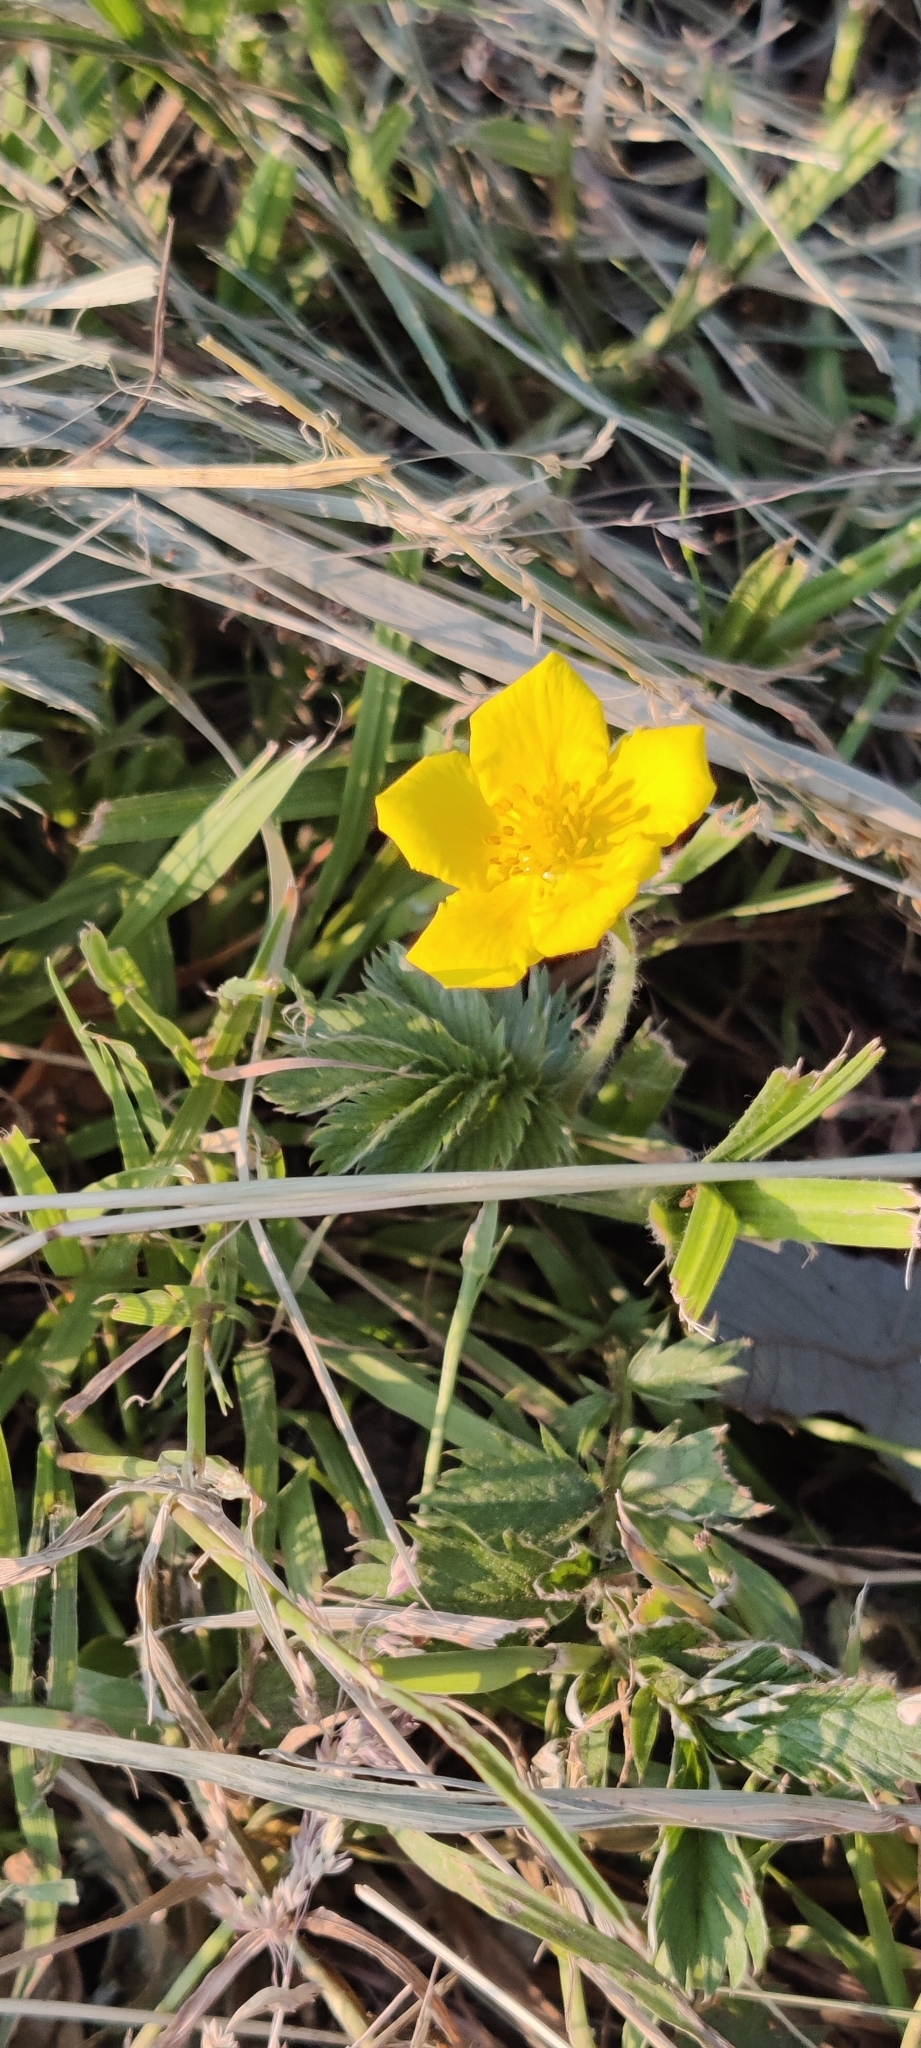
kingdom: Plantae
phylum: Tracheophyta
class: Magnoliopsida
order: Rosales
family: Rosaceae
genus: Argentina
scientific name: Argentina anserina
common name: Common silverweed
